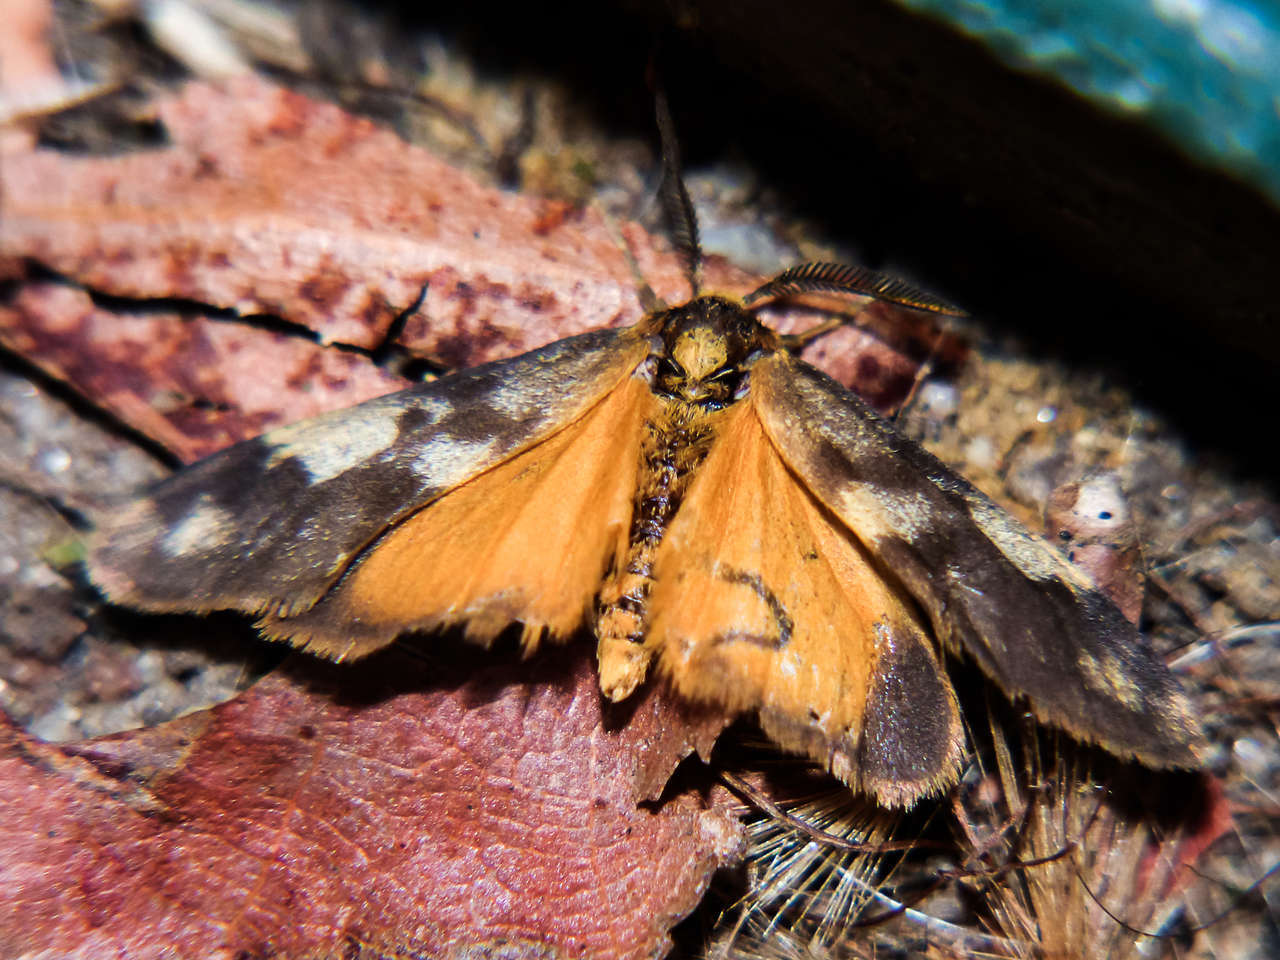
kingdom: Animalia
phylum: Arthropoda
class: Insecta
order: Lepidoptera
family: Erebidae
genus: Anestia
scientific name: Anestia
